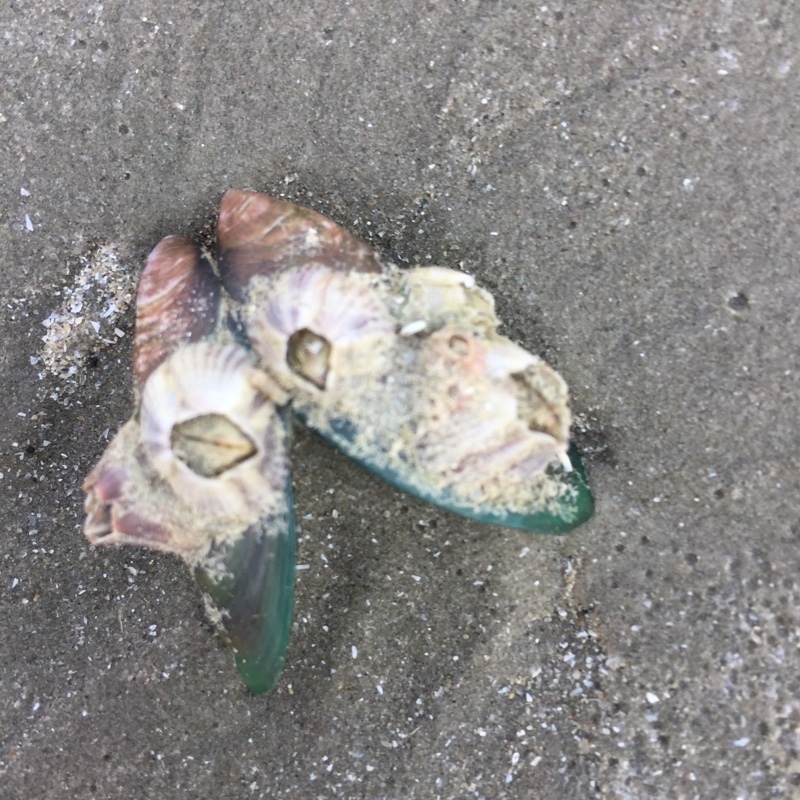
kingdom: Animalia
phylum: Arthropoda
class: Maxillopoda
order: Sessilia
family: Balanidae
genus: Amphibalanus
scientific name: Amphibalanus reticulatus
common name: Reticulated barnacle
